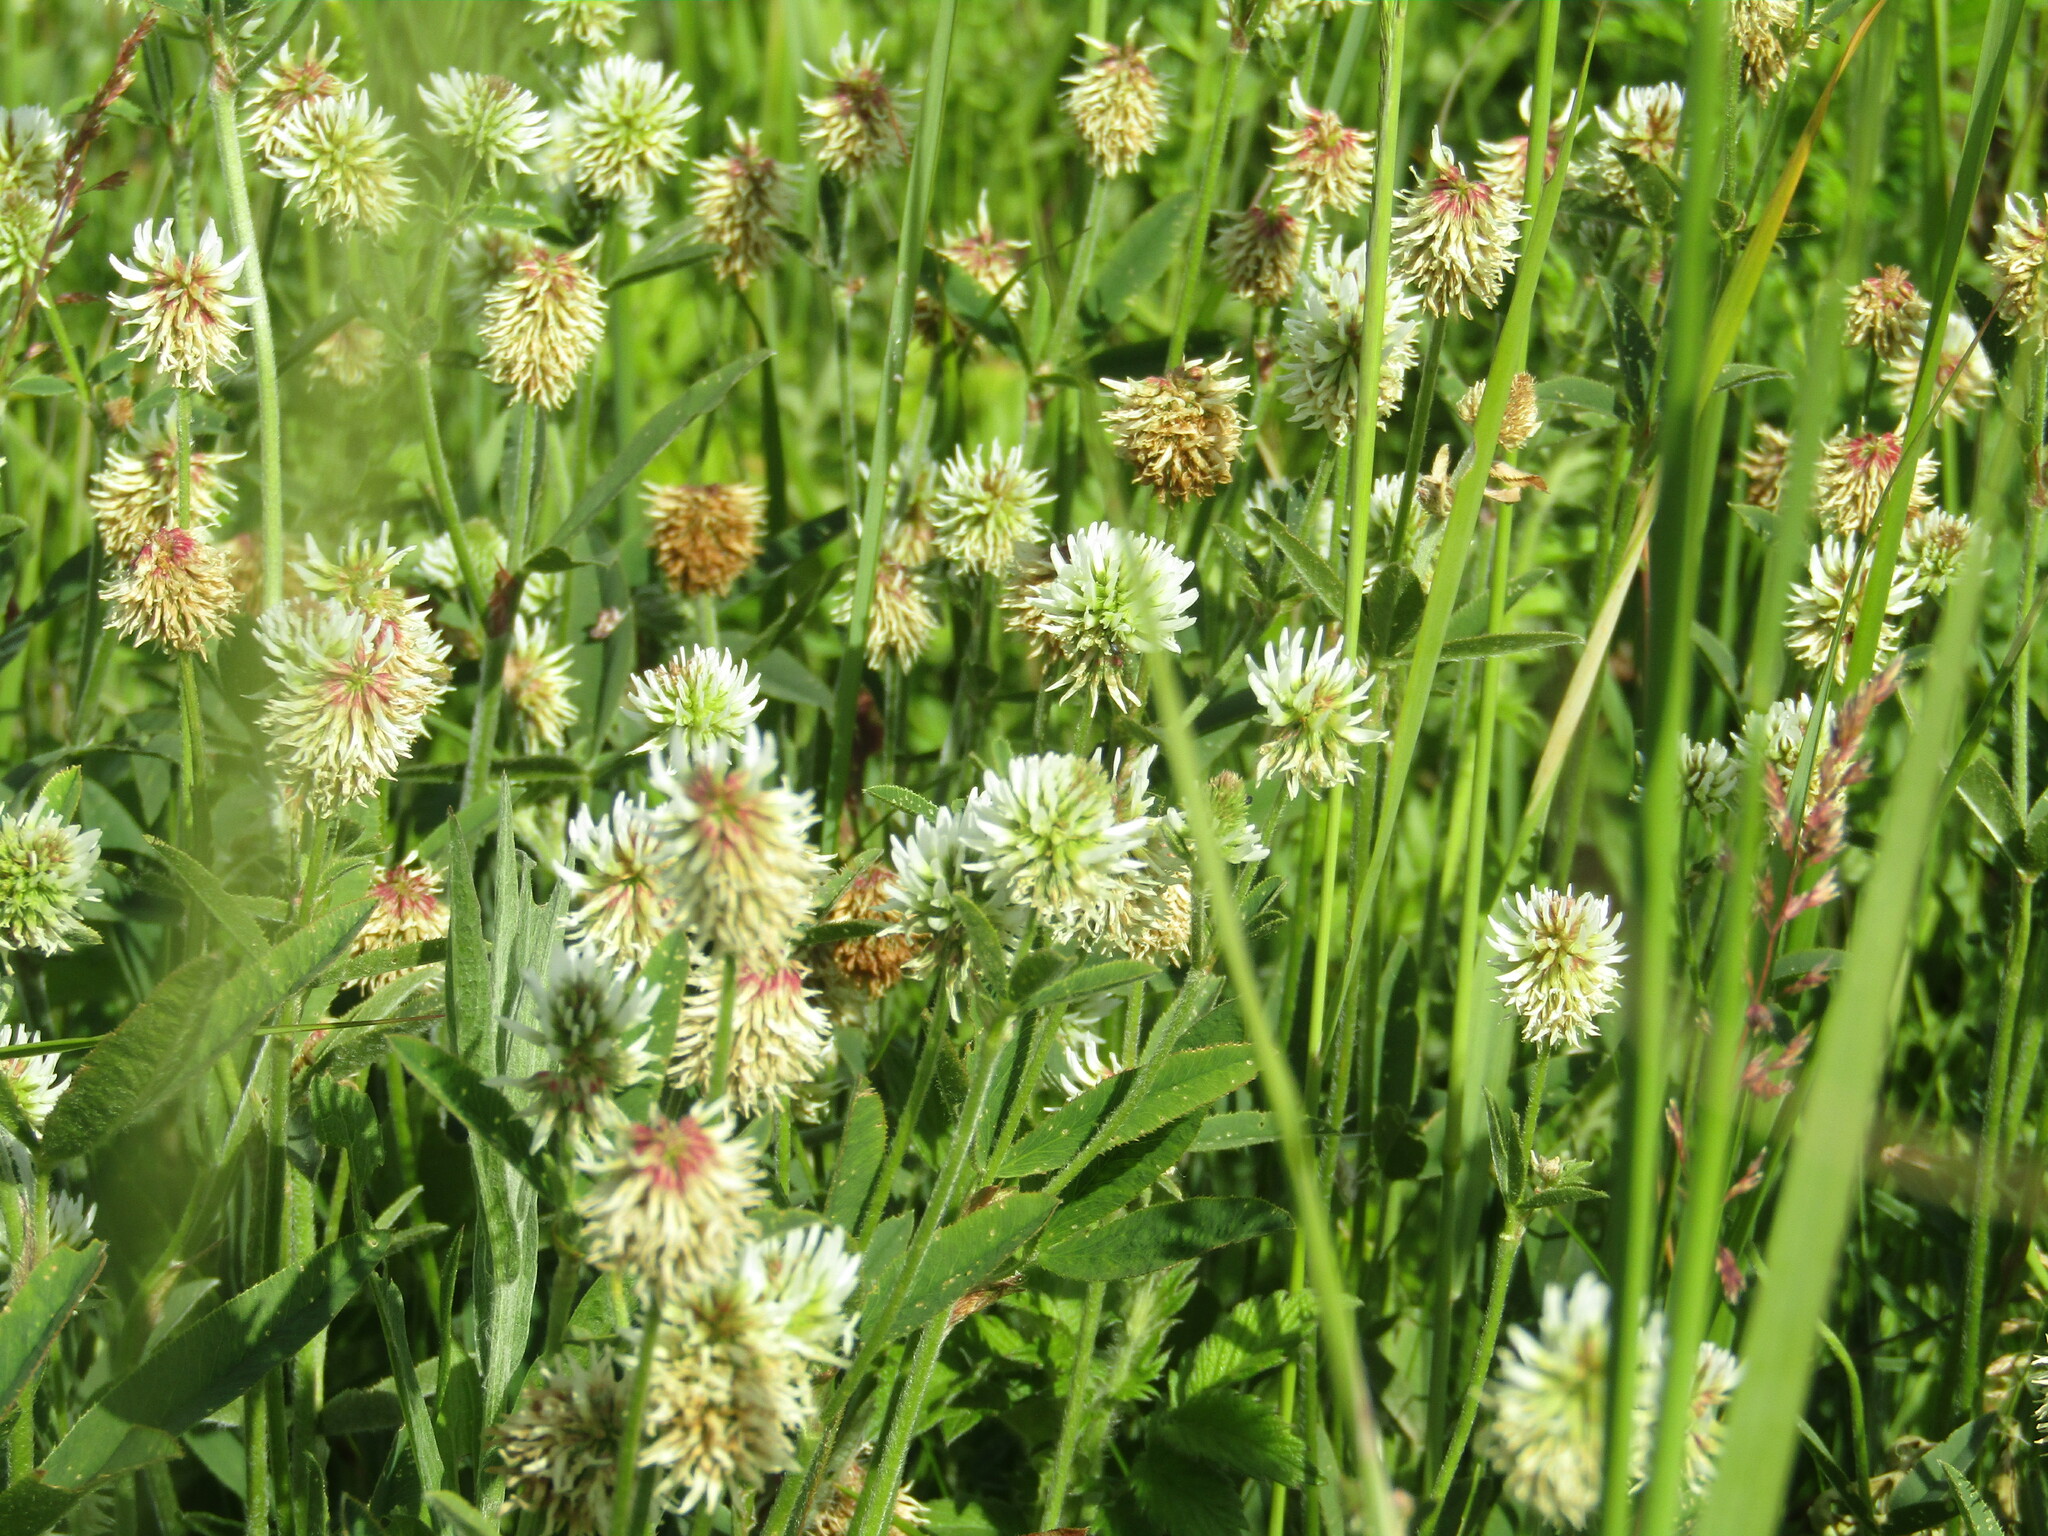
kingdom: Plantae
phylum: Tracheophyta
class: Magnoliopsida
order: Fabales
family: Fabaceae
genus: Trifolium
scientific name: Trifolium montanum
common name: Mountain clover
